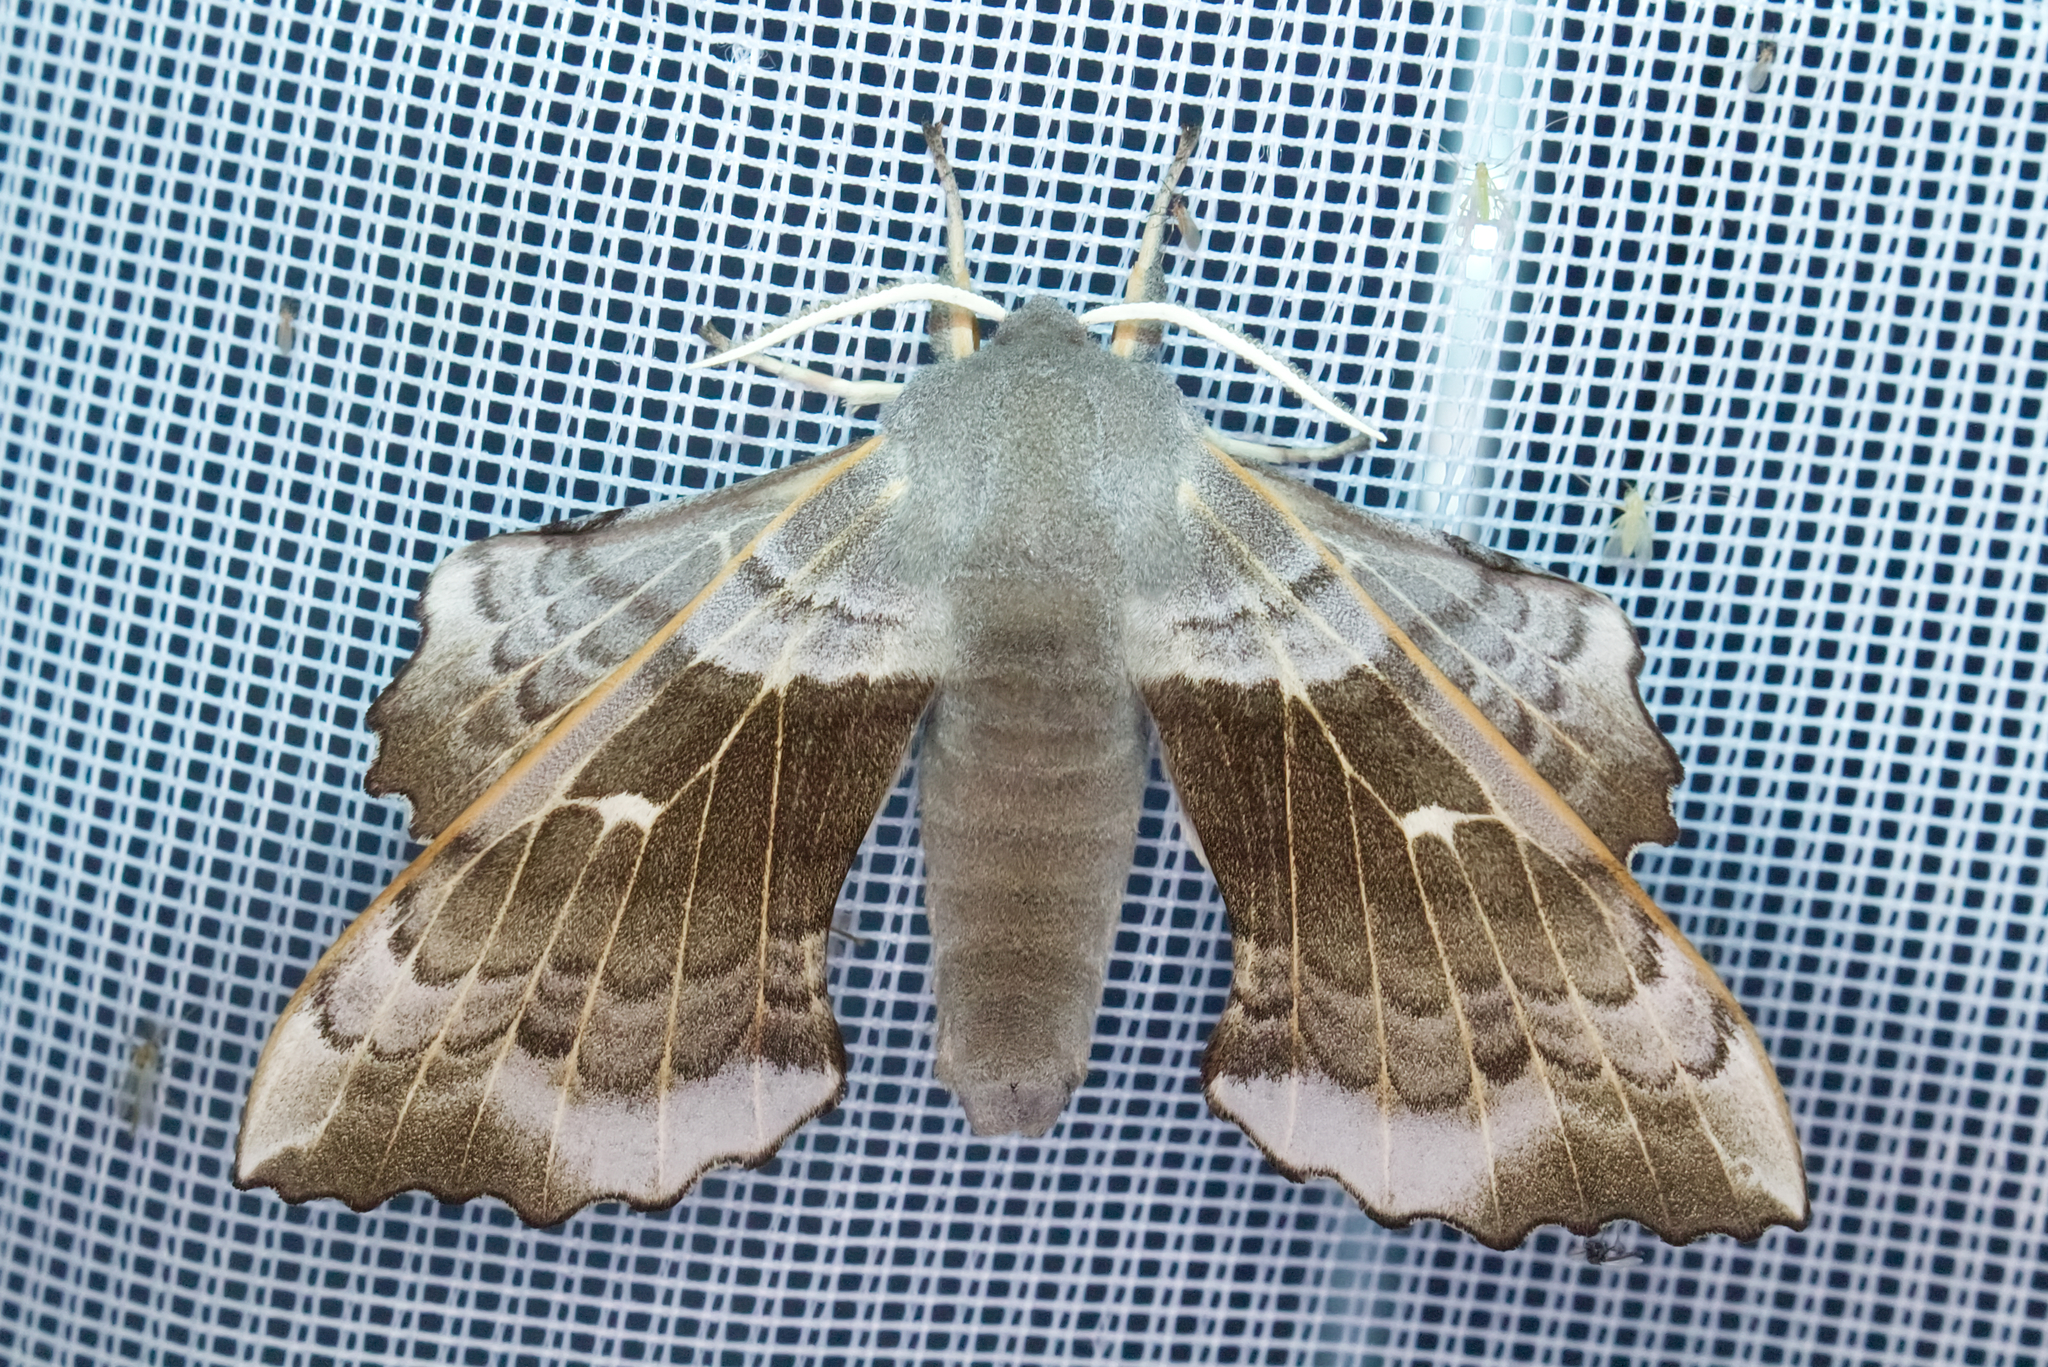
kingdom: Animalia
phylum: Arthropoda
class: Insecta
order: Lepidoptera
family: Sphingidae
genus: Laothoe
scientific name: Laothoe populi
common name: Poplar hawk-moth
